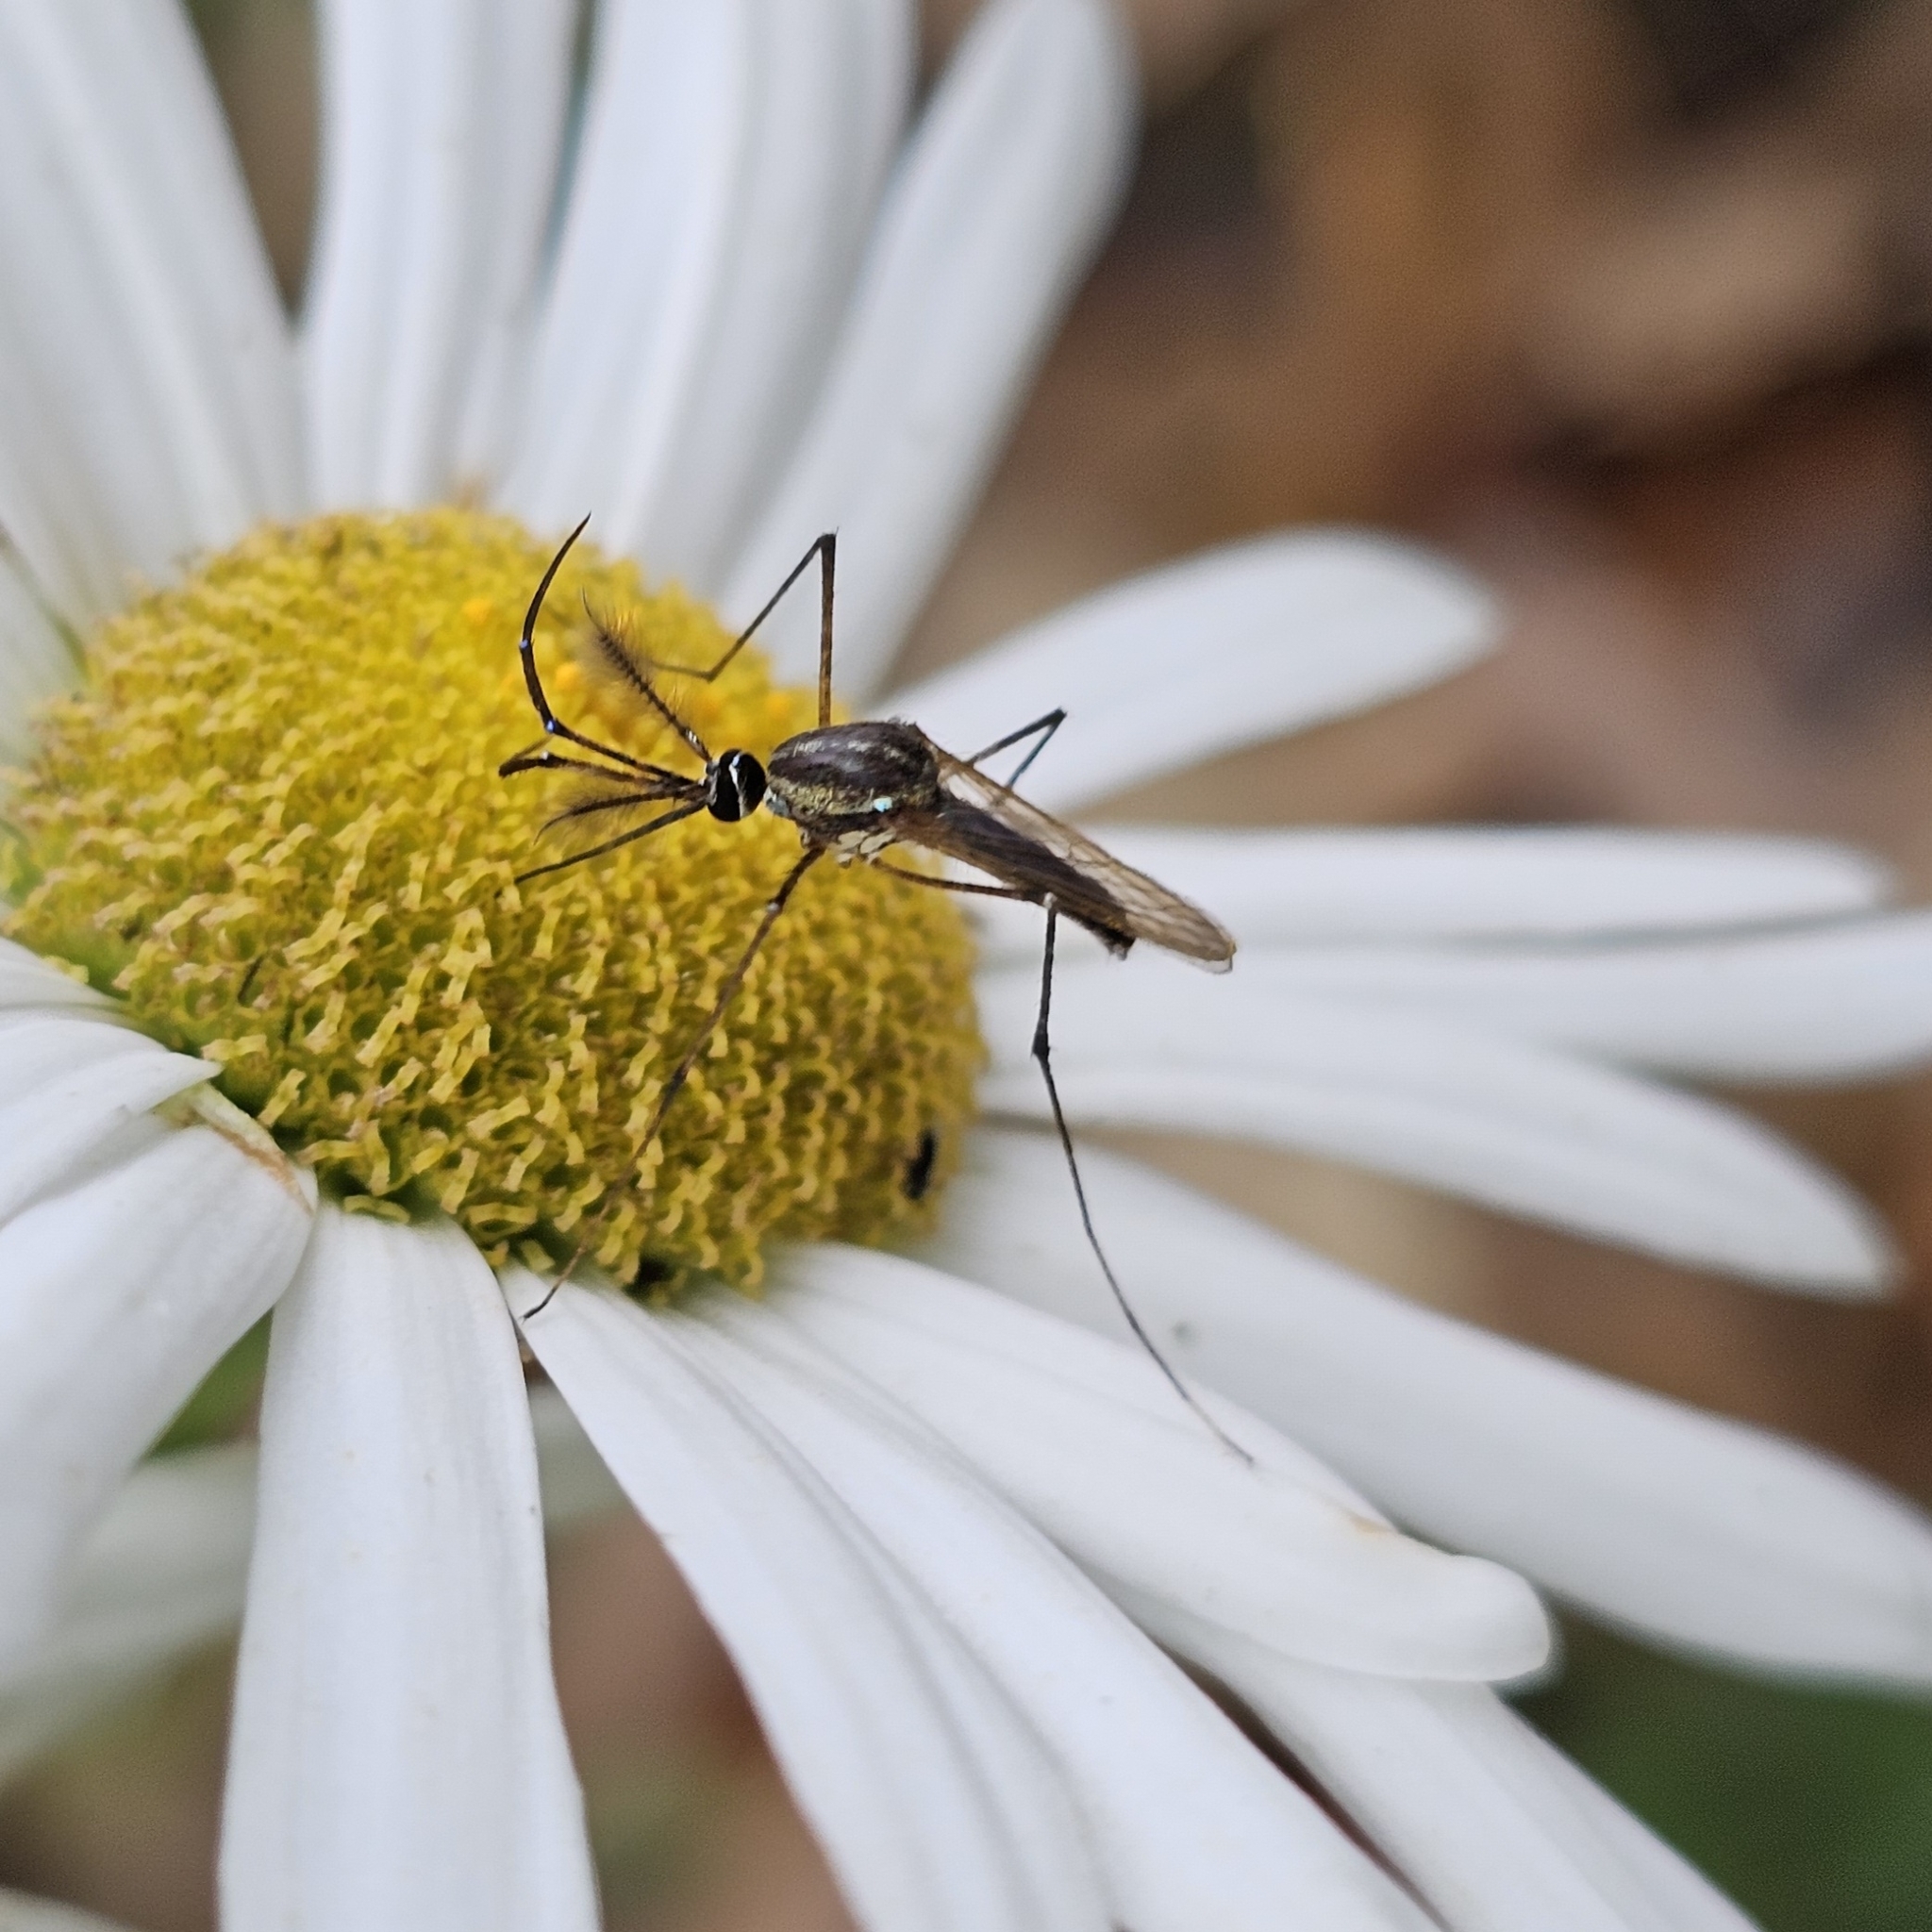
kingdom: Animalia
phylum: Arthropoda
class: Insecta
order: Diptera
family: Culicidae
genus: Toxorhynchites
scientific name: Toxorhynchites rutilus
